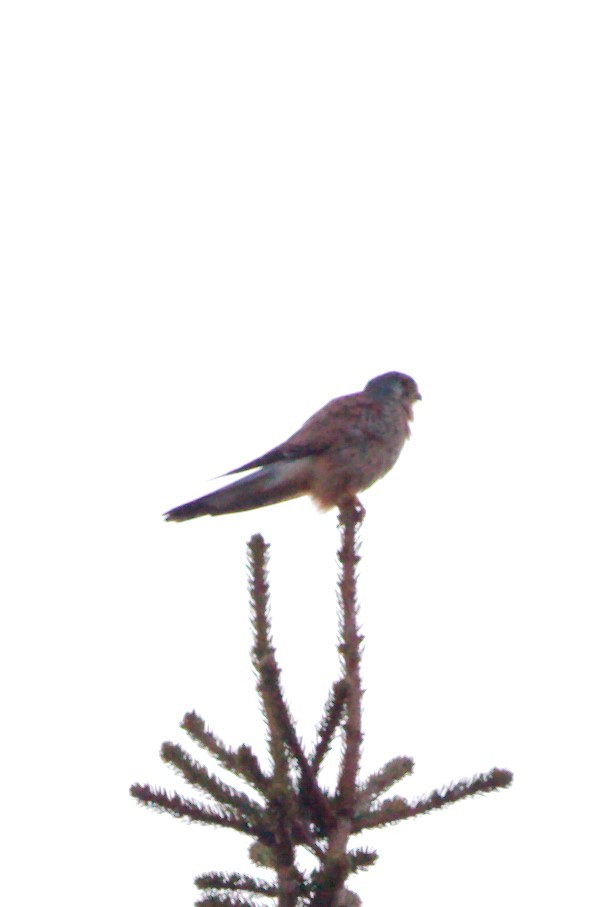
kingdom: Animalia
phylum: Chordata
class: Aves
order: Falconiformes
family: Falconidae
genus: Falco
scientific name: Falco tinnunculus
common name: Common kestrel
